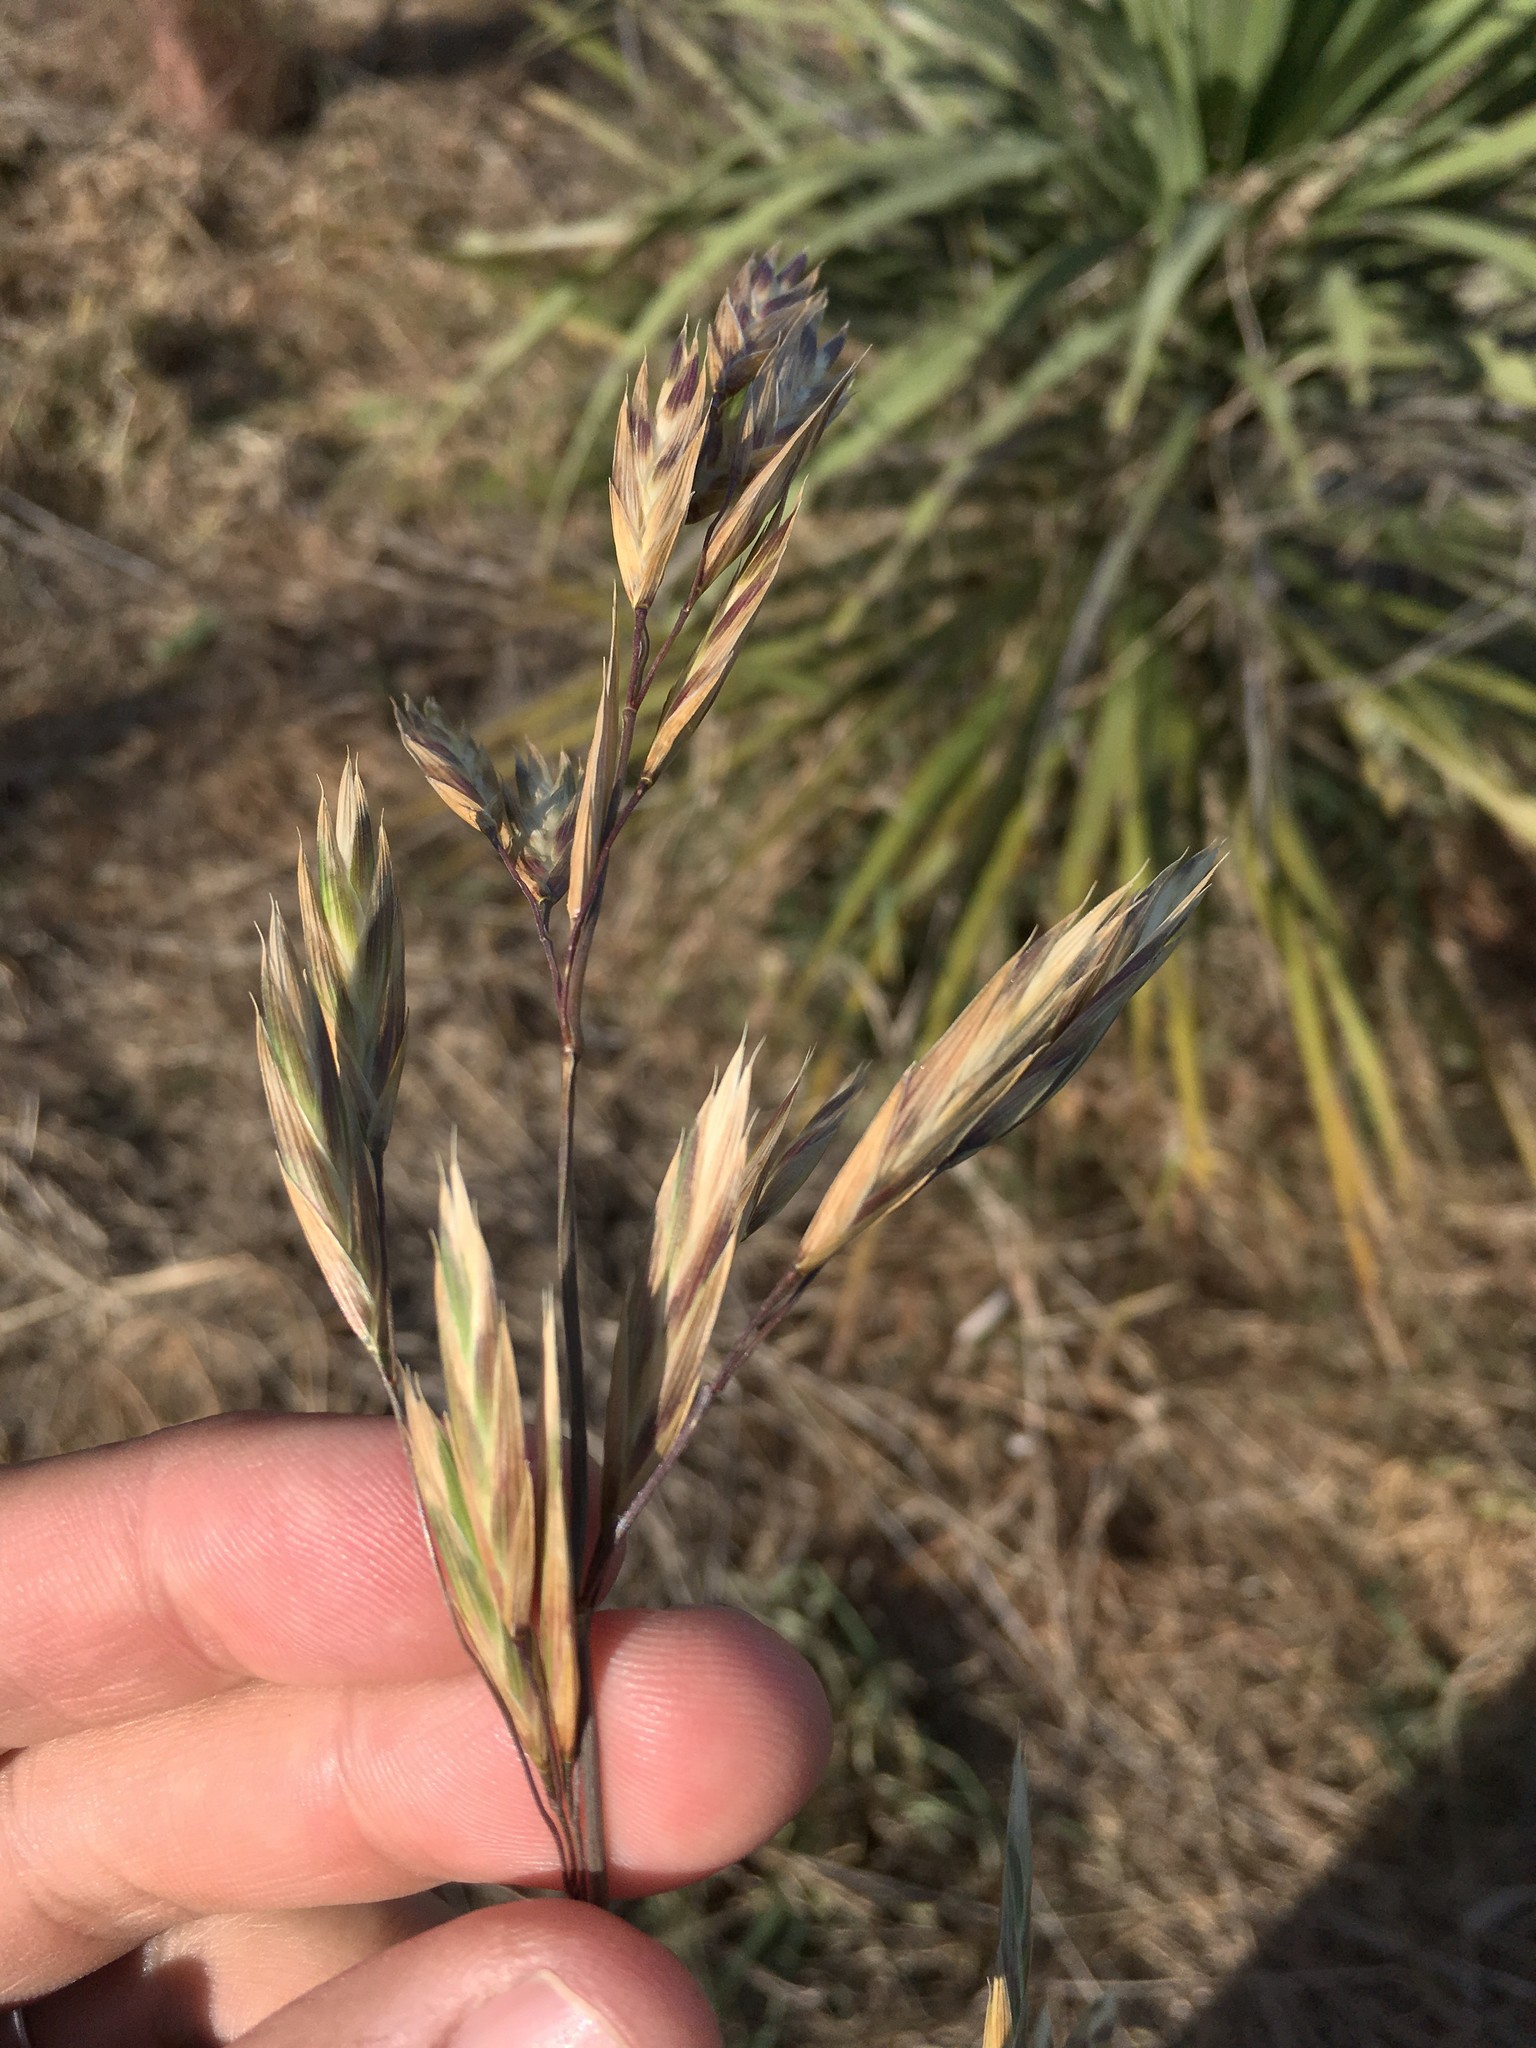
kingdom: Plantae
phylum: Tracheophyta
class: Liliopsida
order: Poales
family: Poaceae
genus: Bromus
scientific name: Bromus catharticus
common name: Rescuegrass
